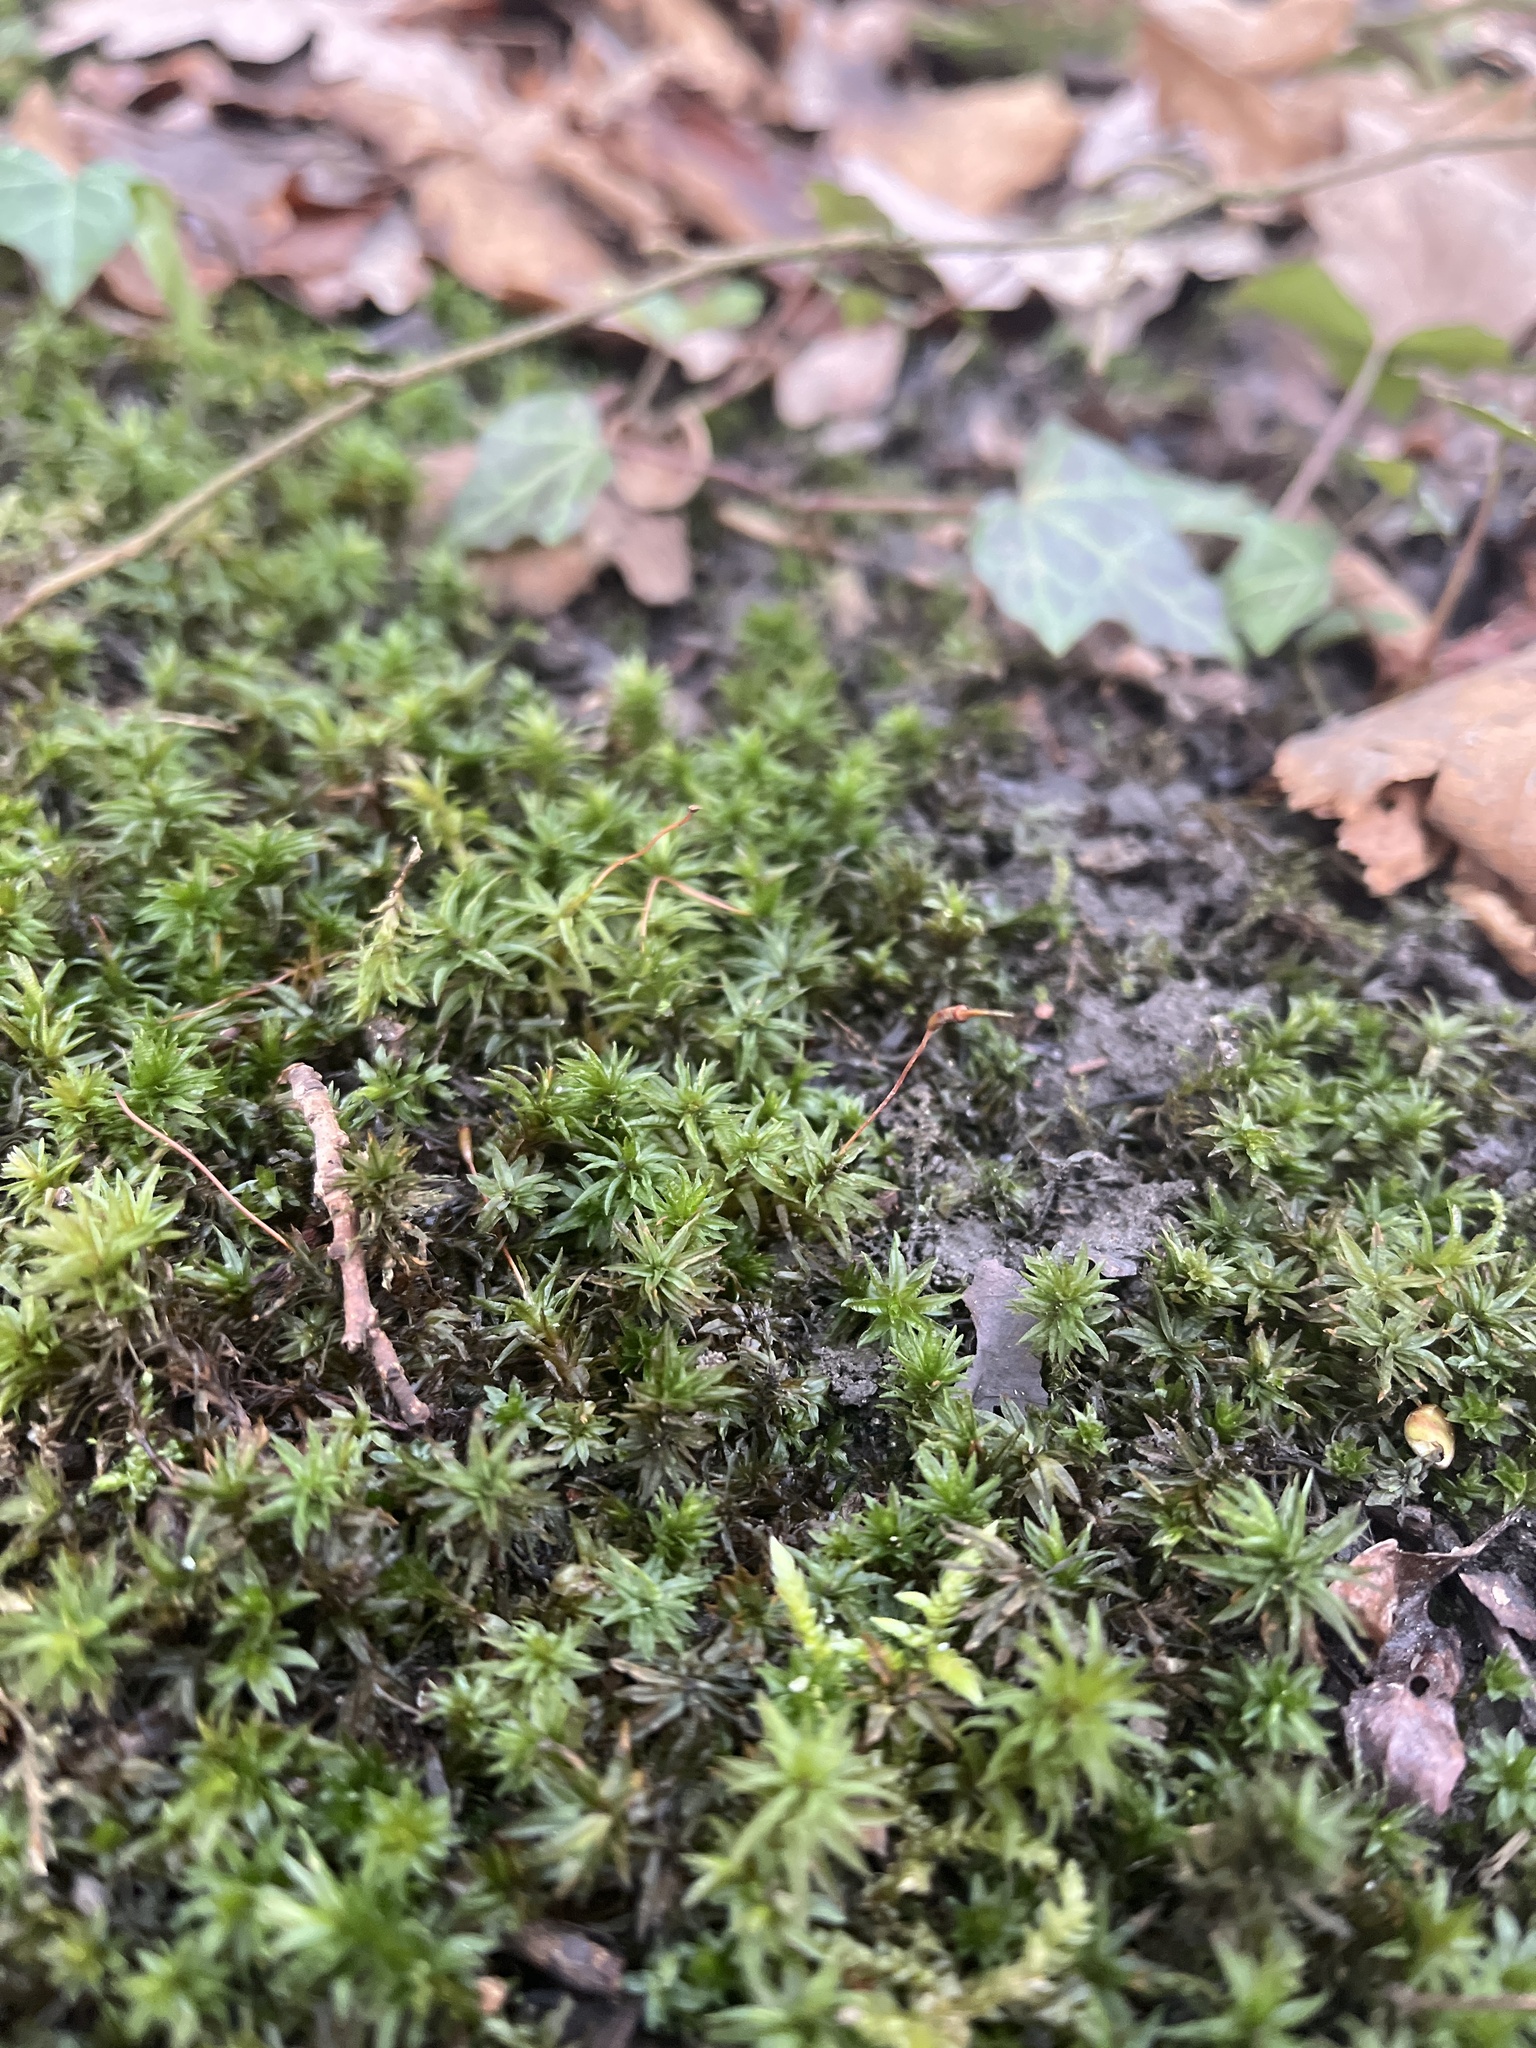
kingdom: Plantae
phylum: Bryophyta
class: Polytrichopsida
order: Polytrichales
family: Polytrichaceae
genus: Atrichum
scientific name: Atrichum undulatum
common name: Common smoothcap
